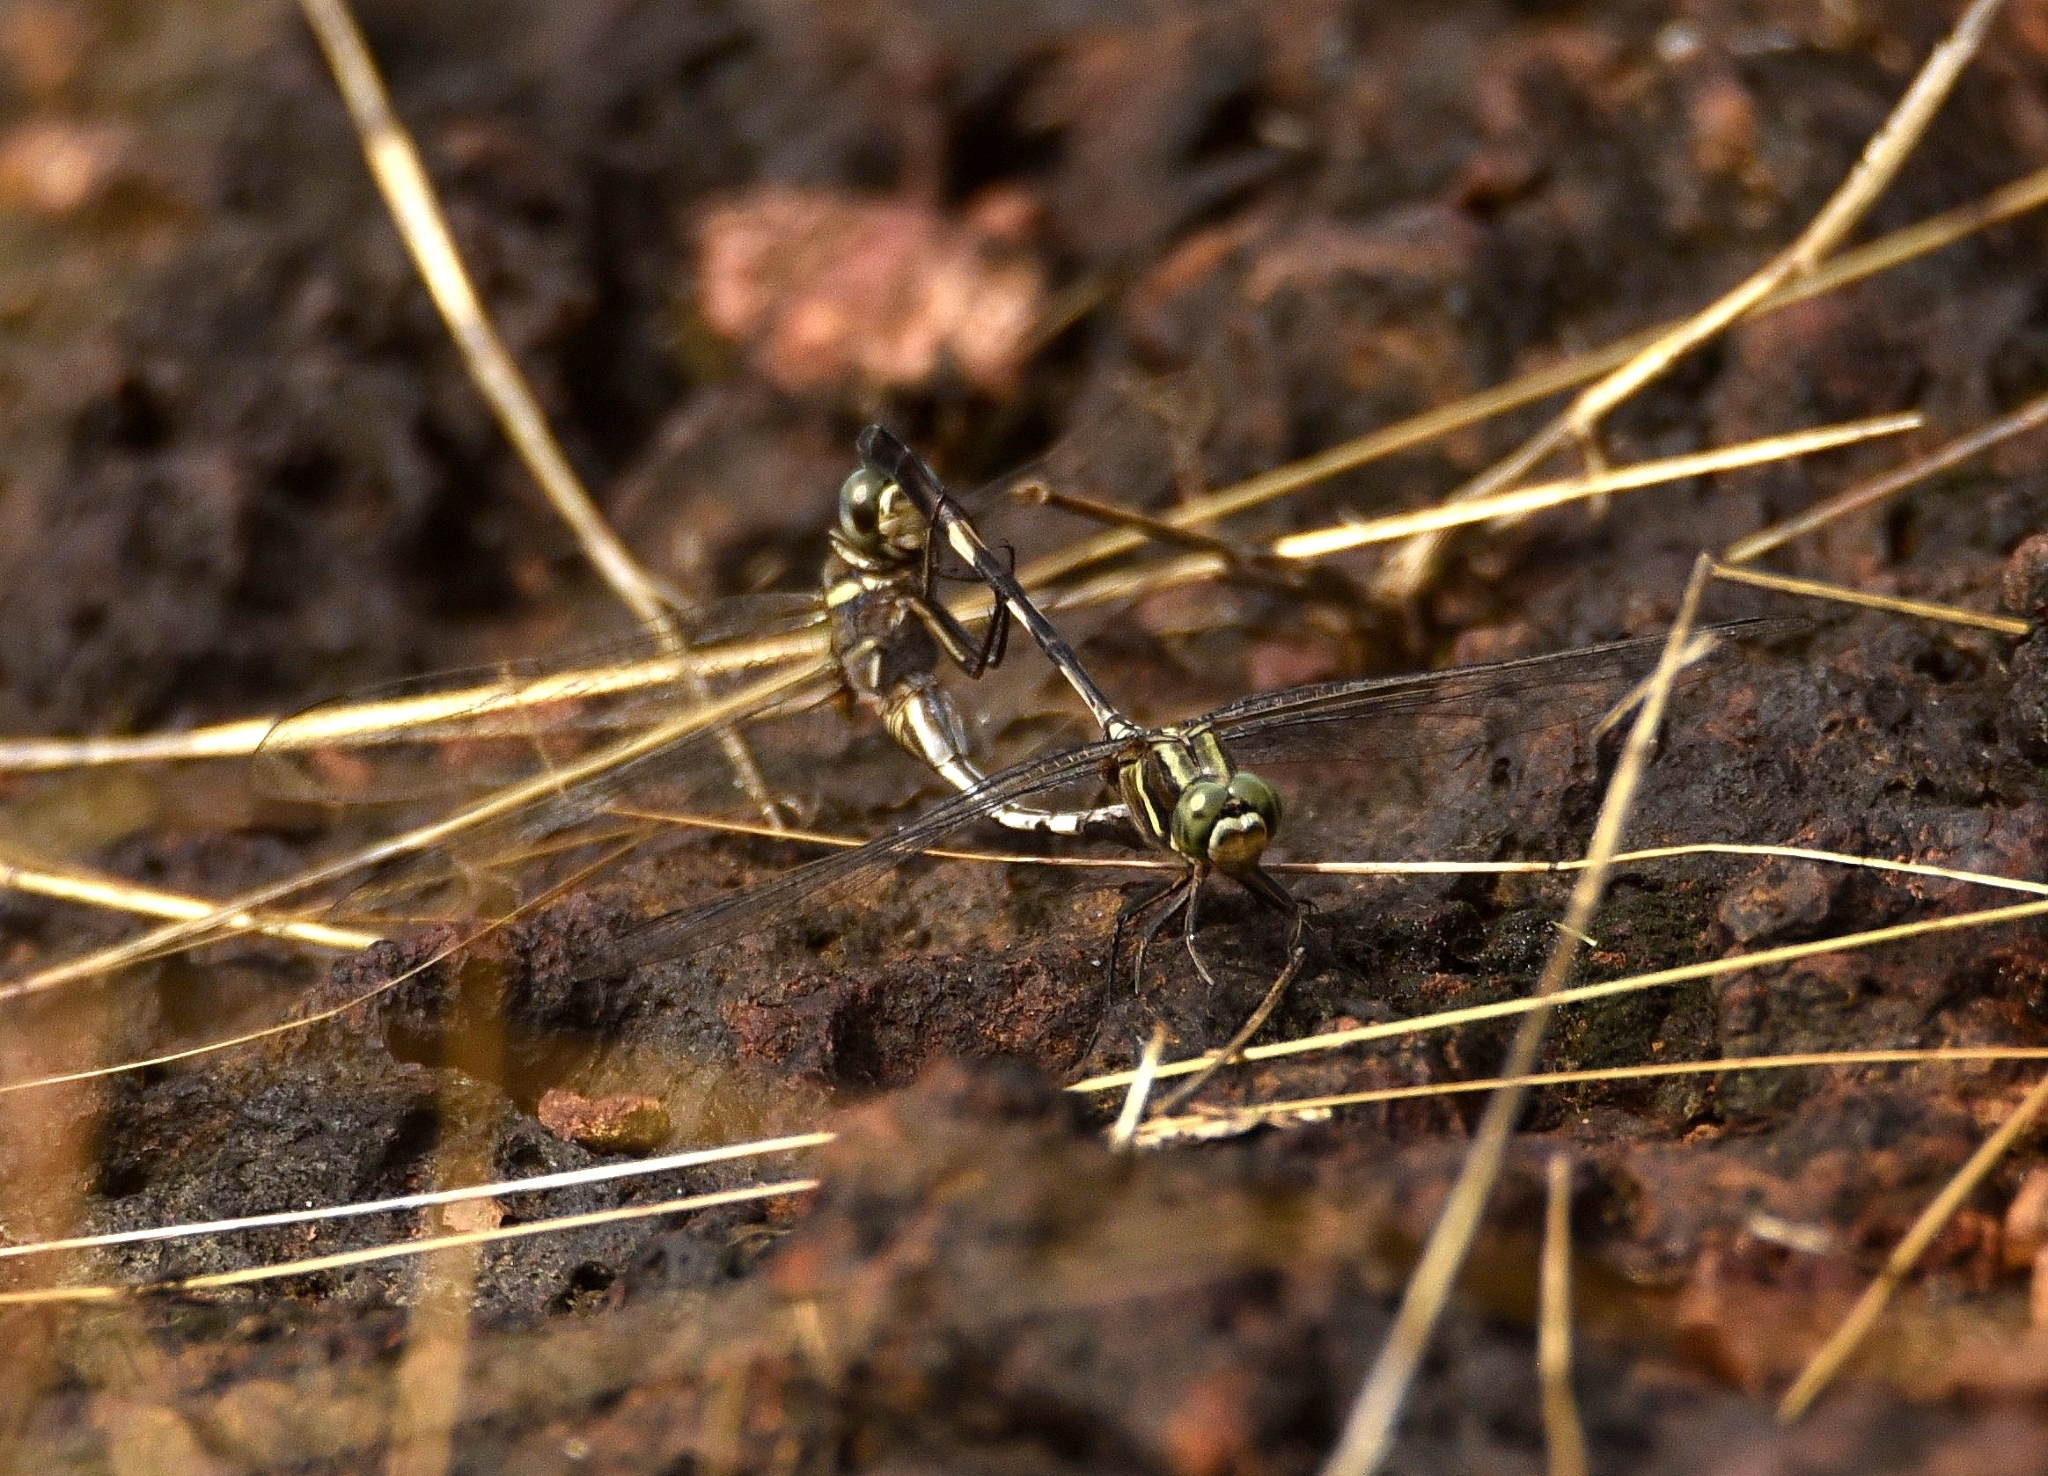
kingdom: Animalia
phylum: Arthropoda
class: Insecta
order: Odonata
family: Libellulidae
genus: Orthetrum
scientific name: Orthetrum sabina
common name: Slender skimmer
